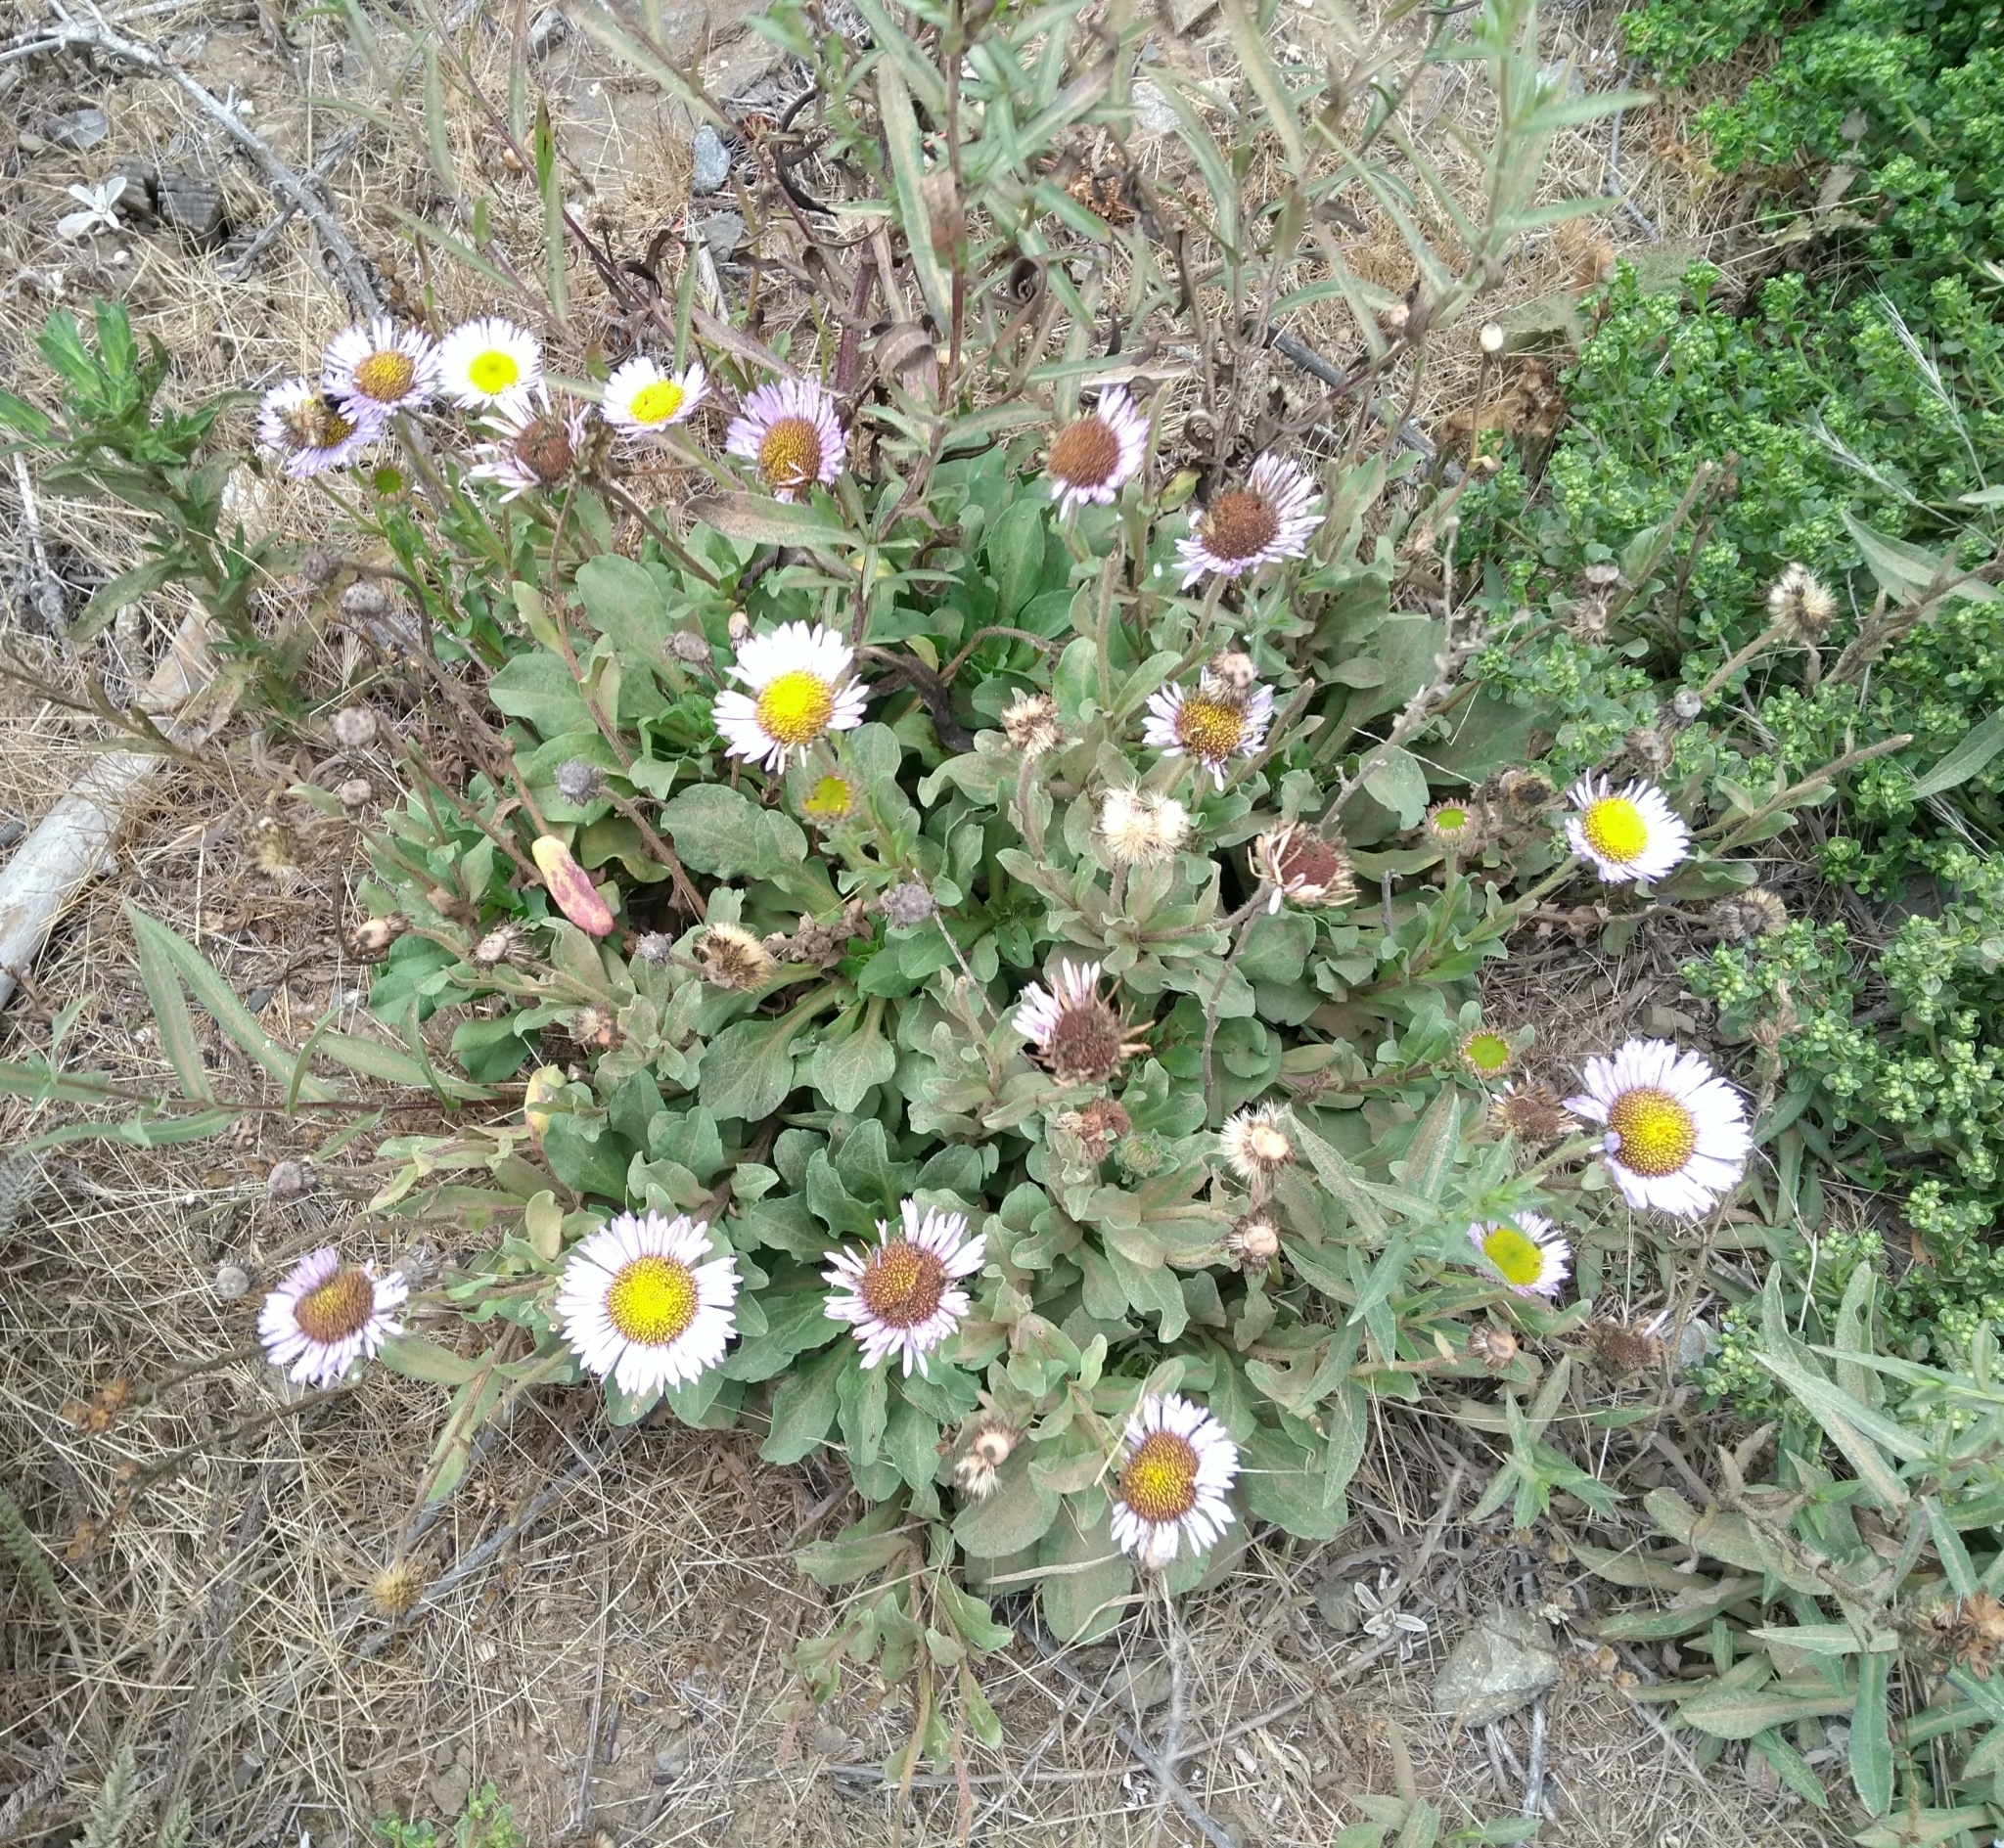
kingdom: Plantae
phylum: Tracheophyta
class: Magnoliopsida
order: Asterales
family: Asteraceae
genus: Erigeron
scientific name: Erigeron glaucus
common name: Seaside daisy
